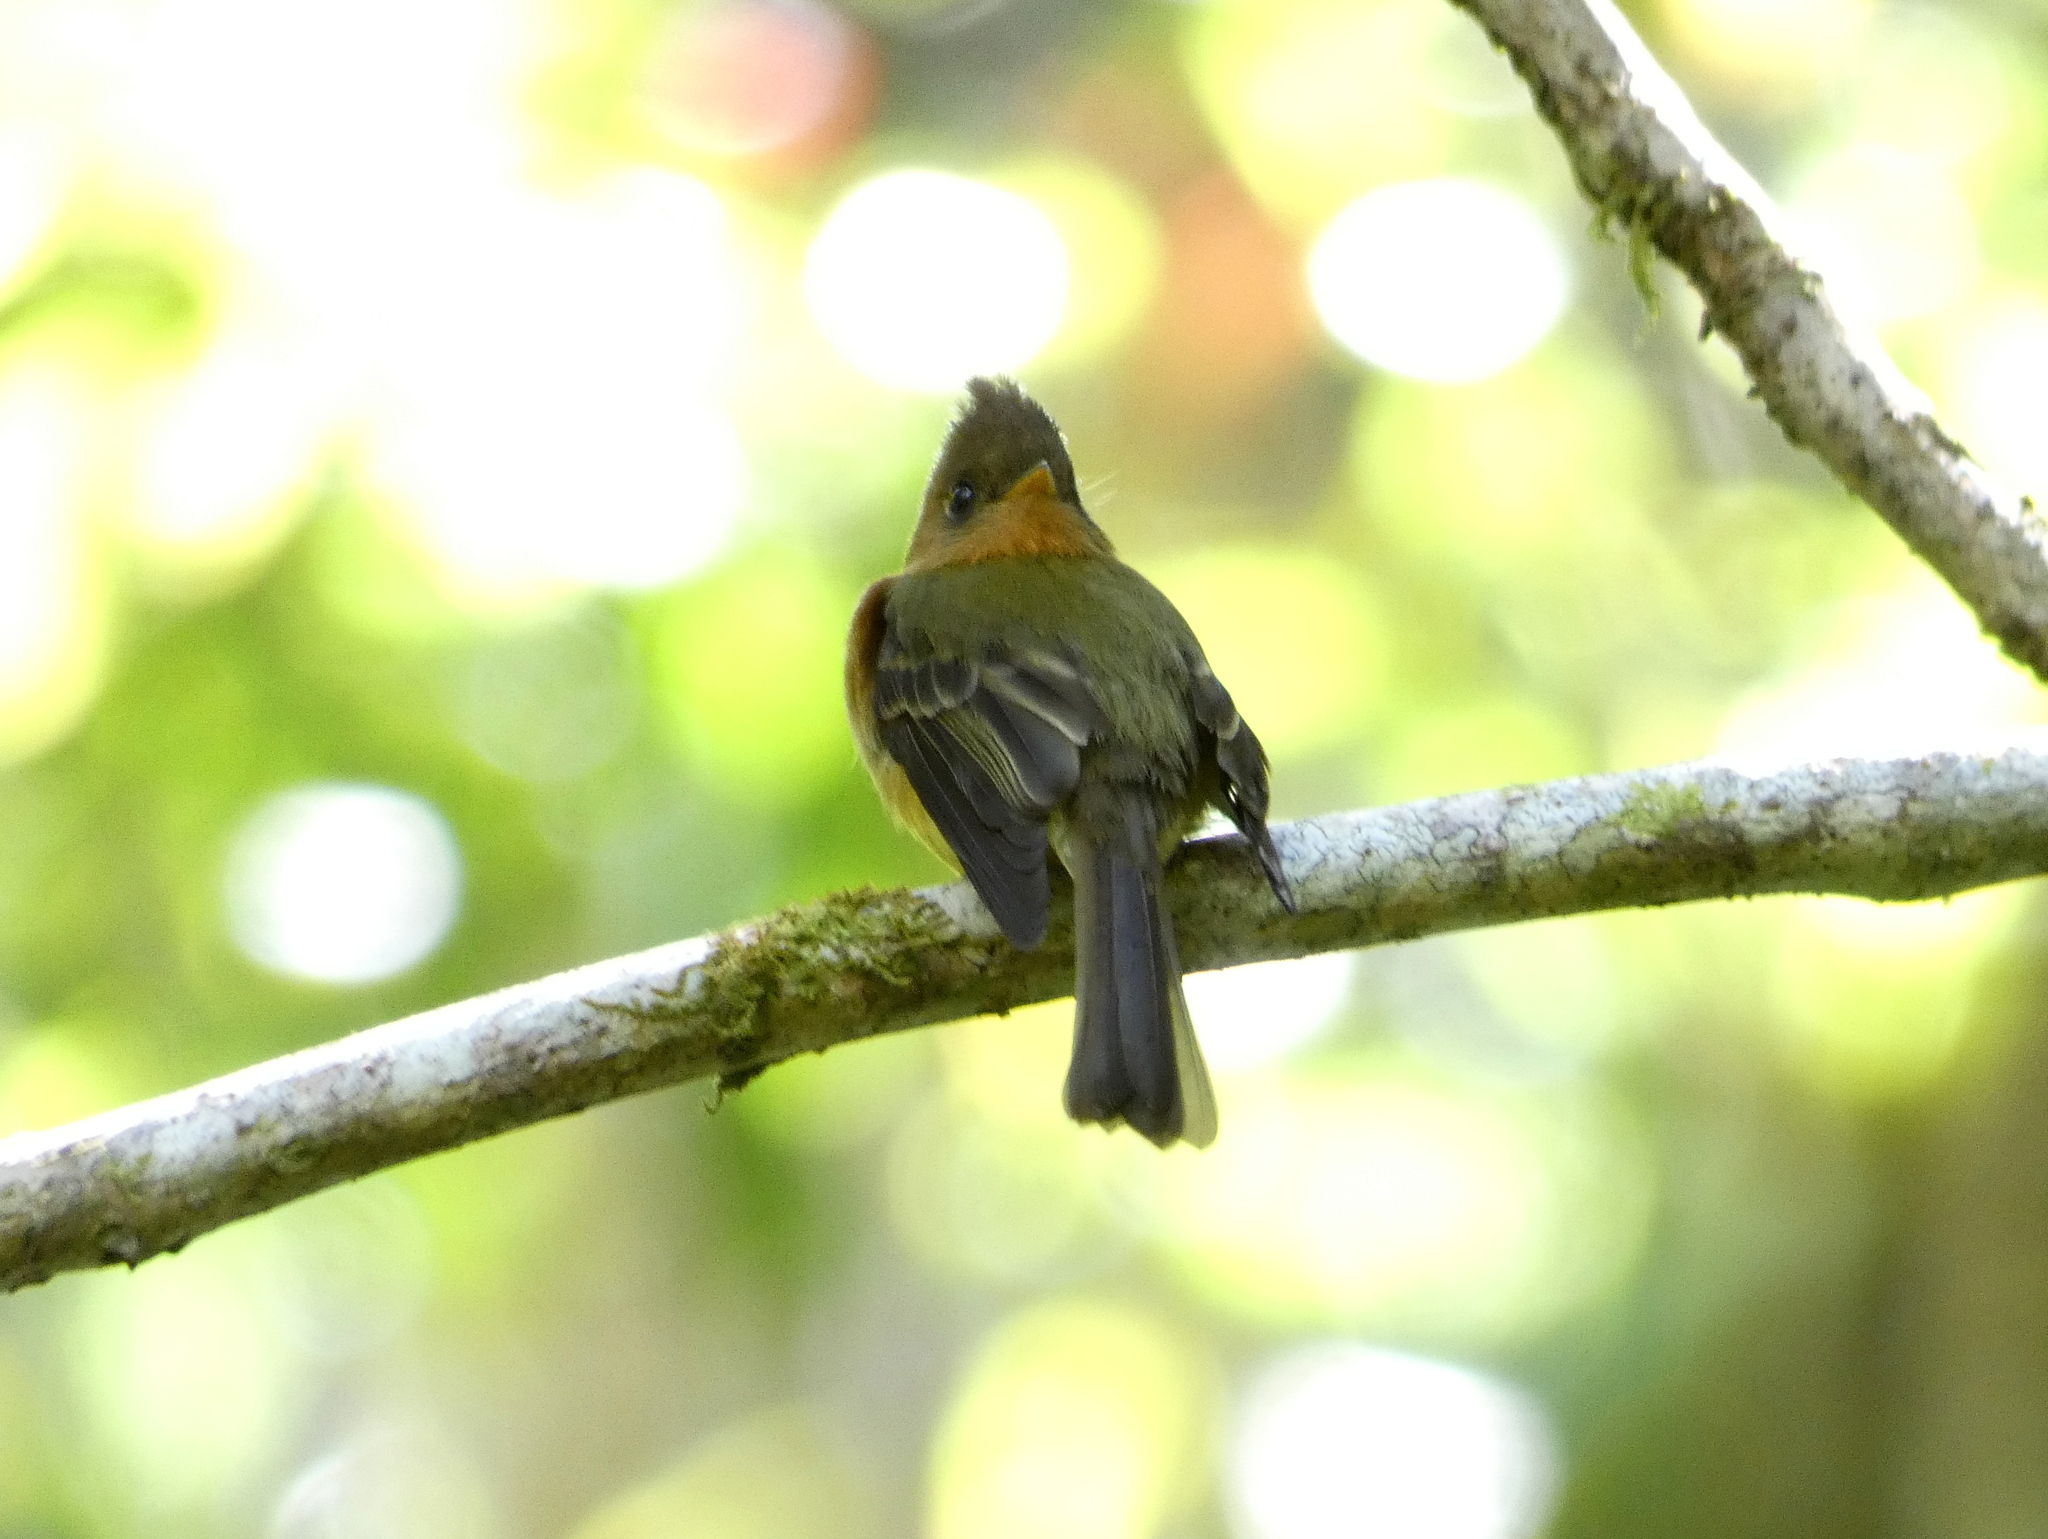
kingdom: Animalia
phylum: Chordata
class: Aves
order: Passeriformes
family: Tyrannidae
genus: Mitrephanes
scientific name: Mitrephanes phaeocercus
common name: Northern tufted flycatcher
